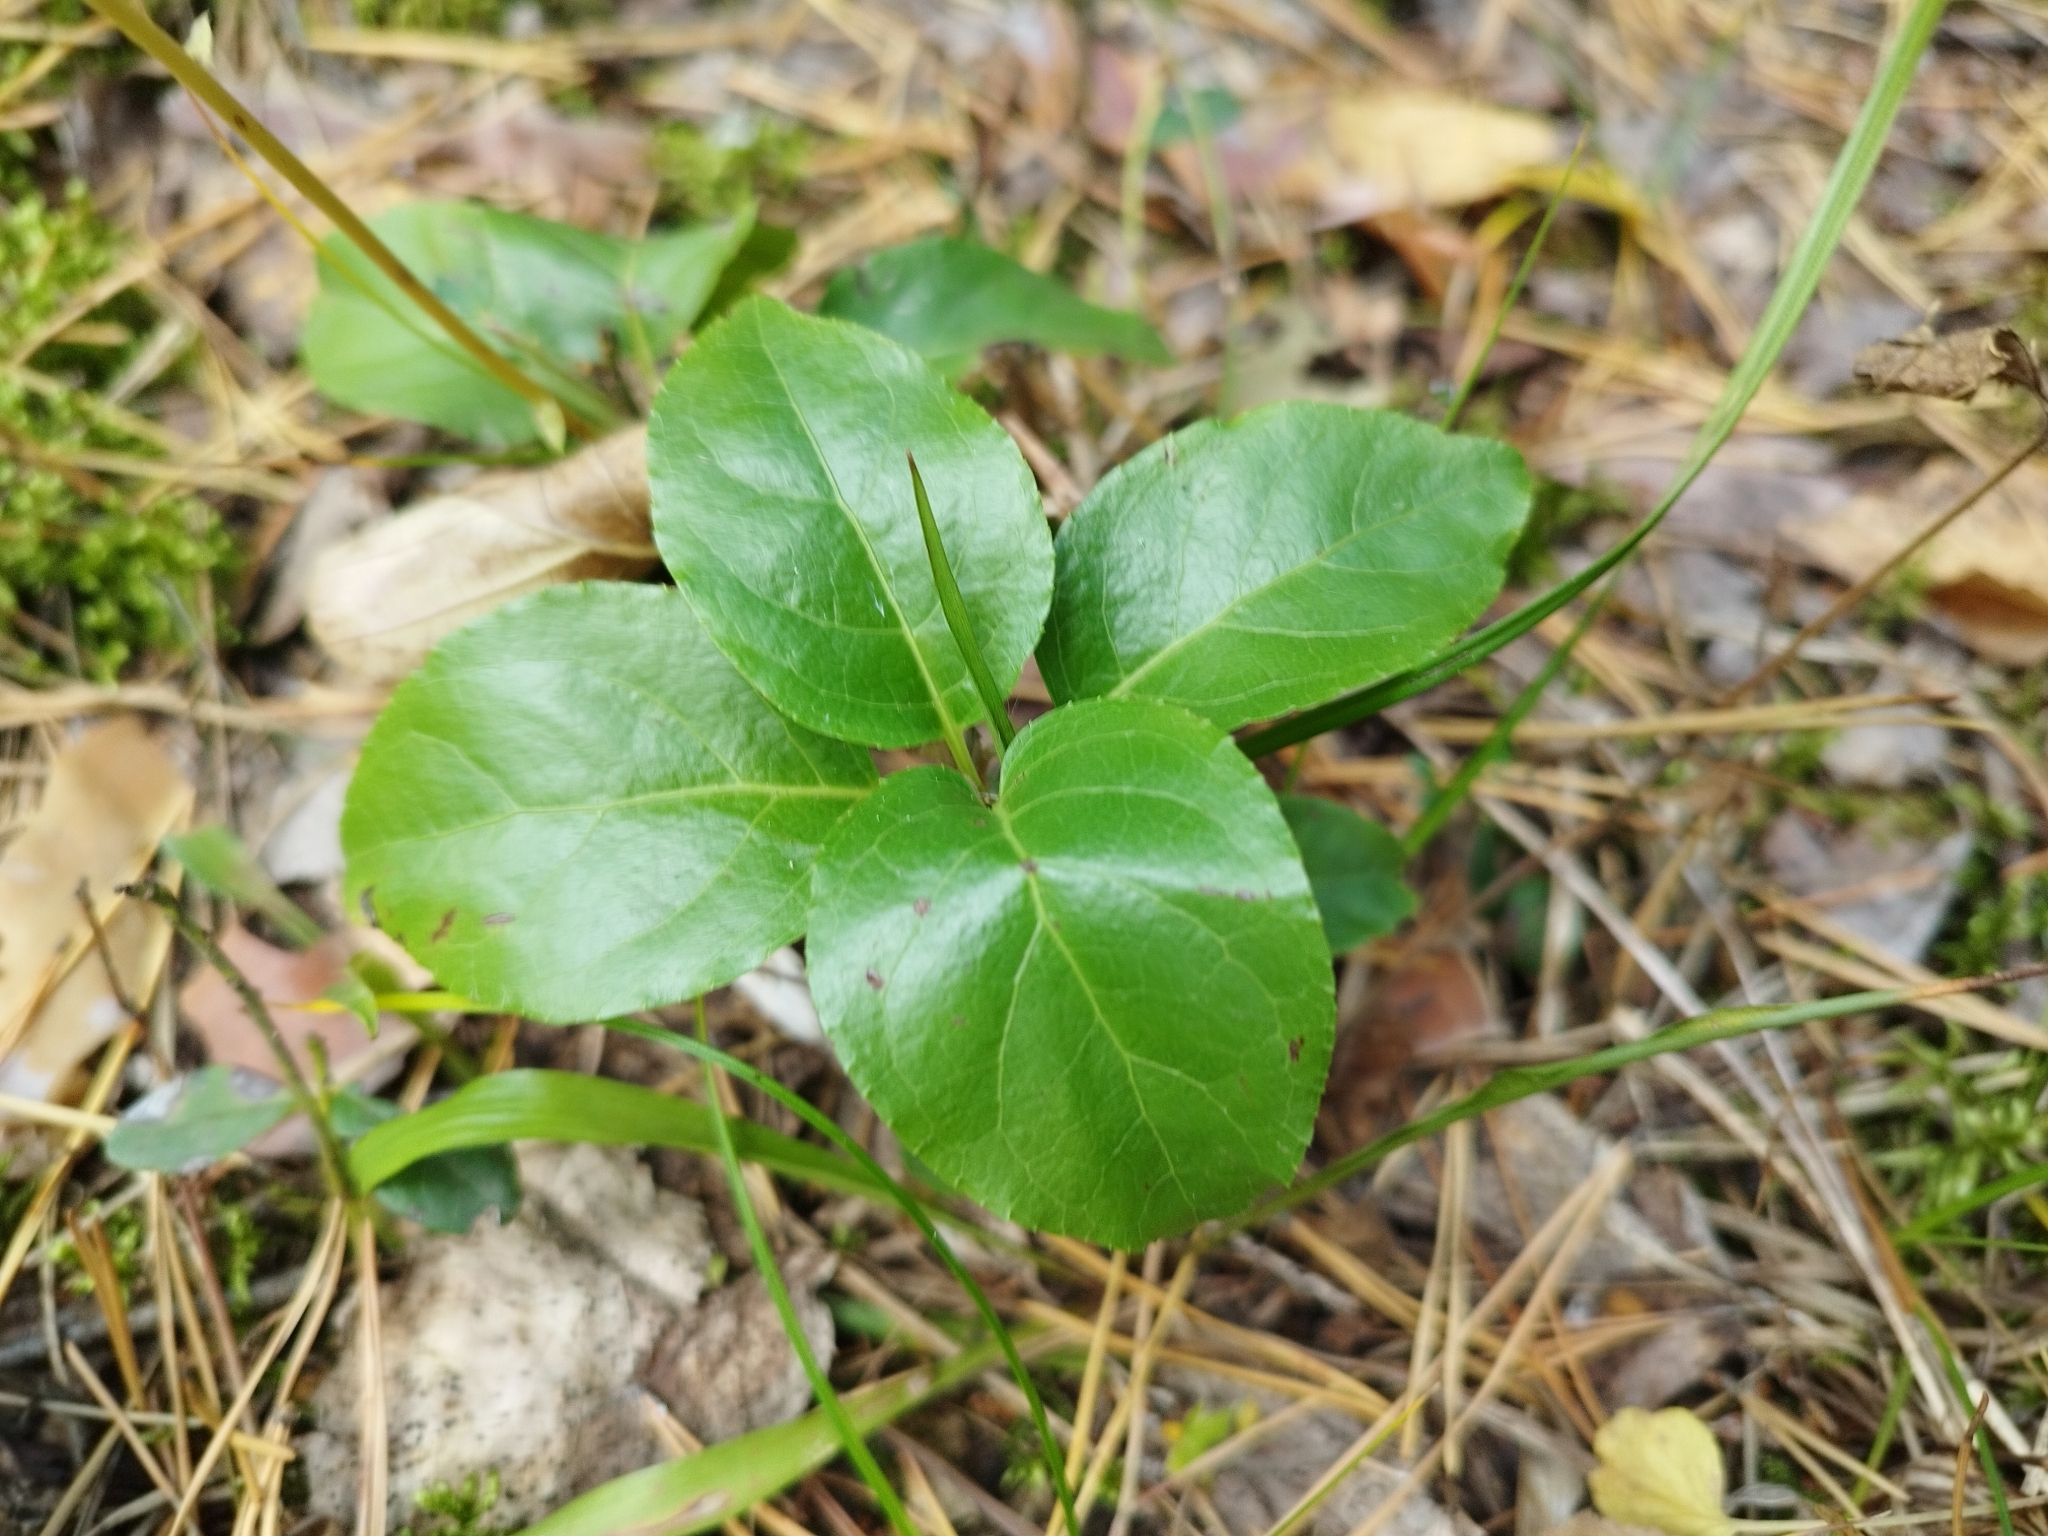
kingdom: Plantae
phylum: Tracheophyta
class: Magnoliopsida
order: Ericales
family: Ericaceae
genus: Orthilia
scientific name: Orthilia secunda
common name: One-sided orthilia
